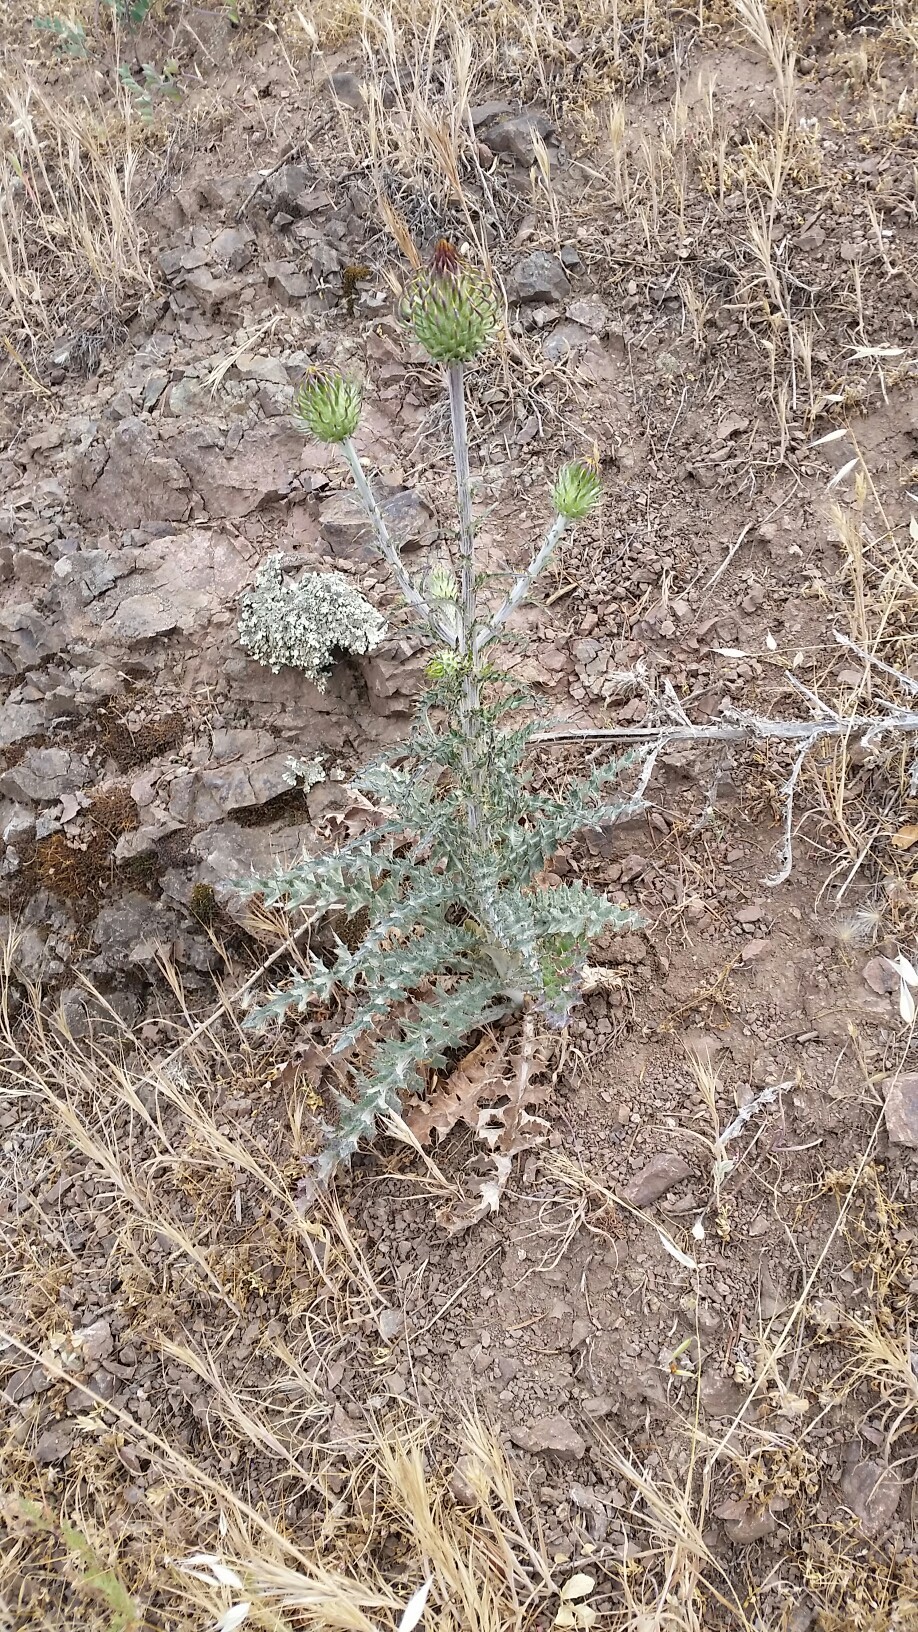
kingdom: Plantae
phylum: Tracheophyta
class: Magnoliopsida
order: Asterales
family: Asteraceae
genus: Cirsium
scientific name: Cirsium occidentale
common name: Western thistle
